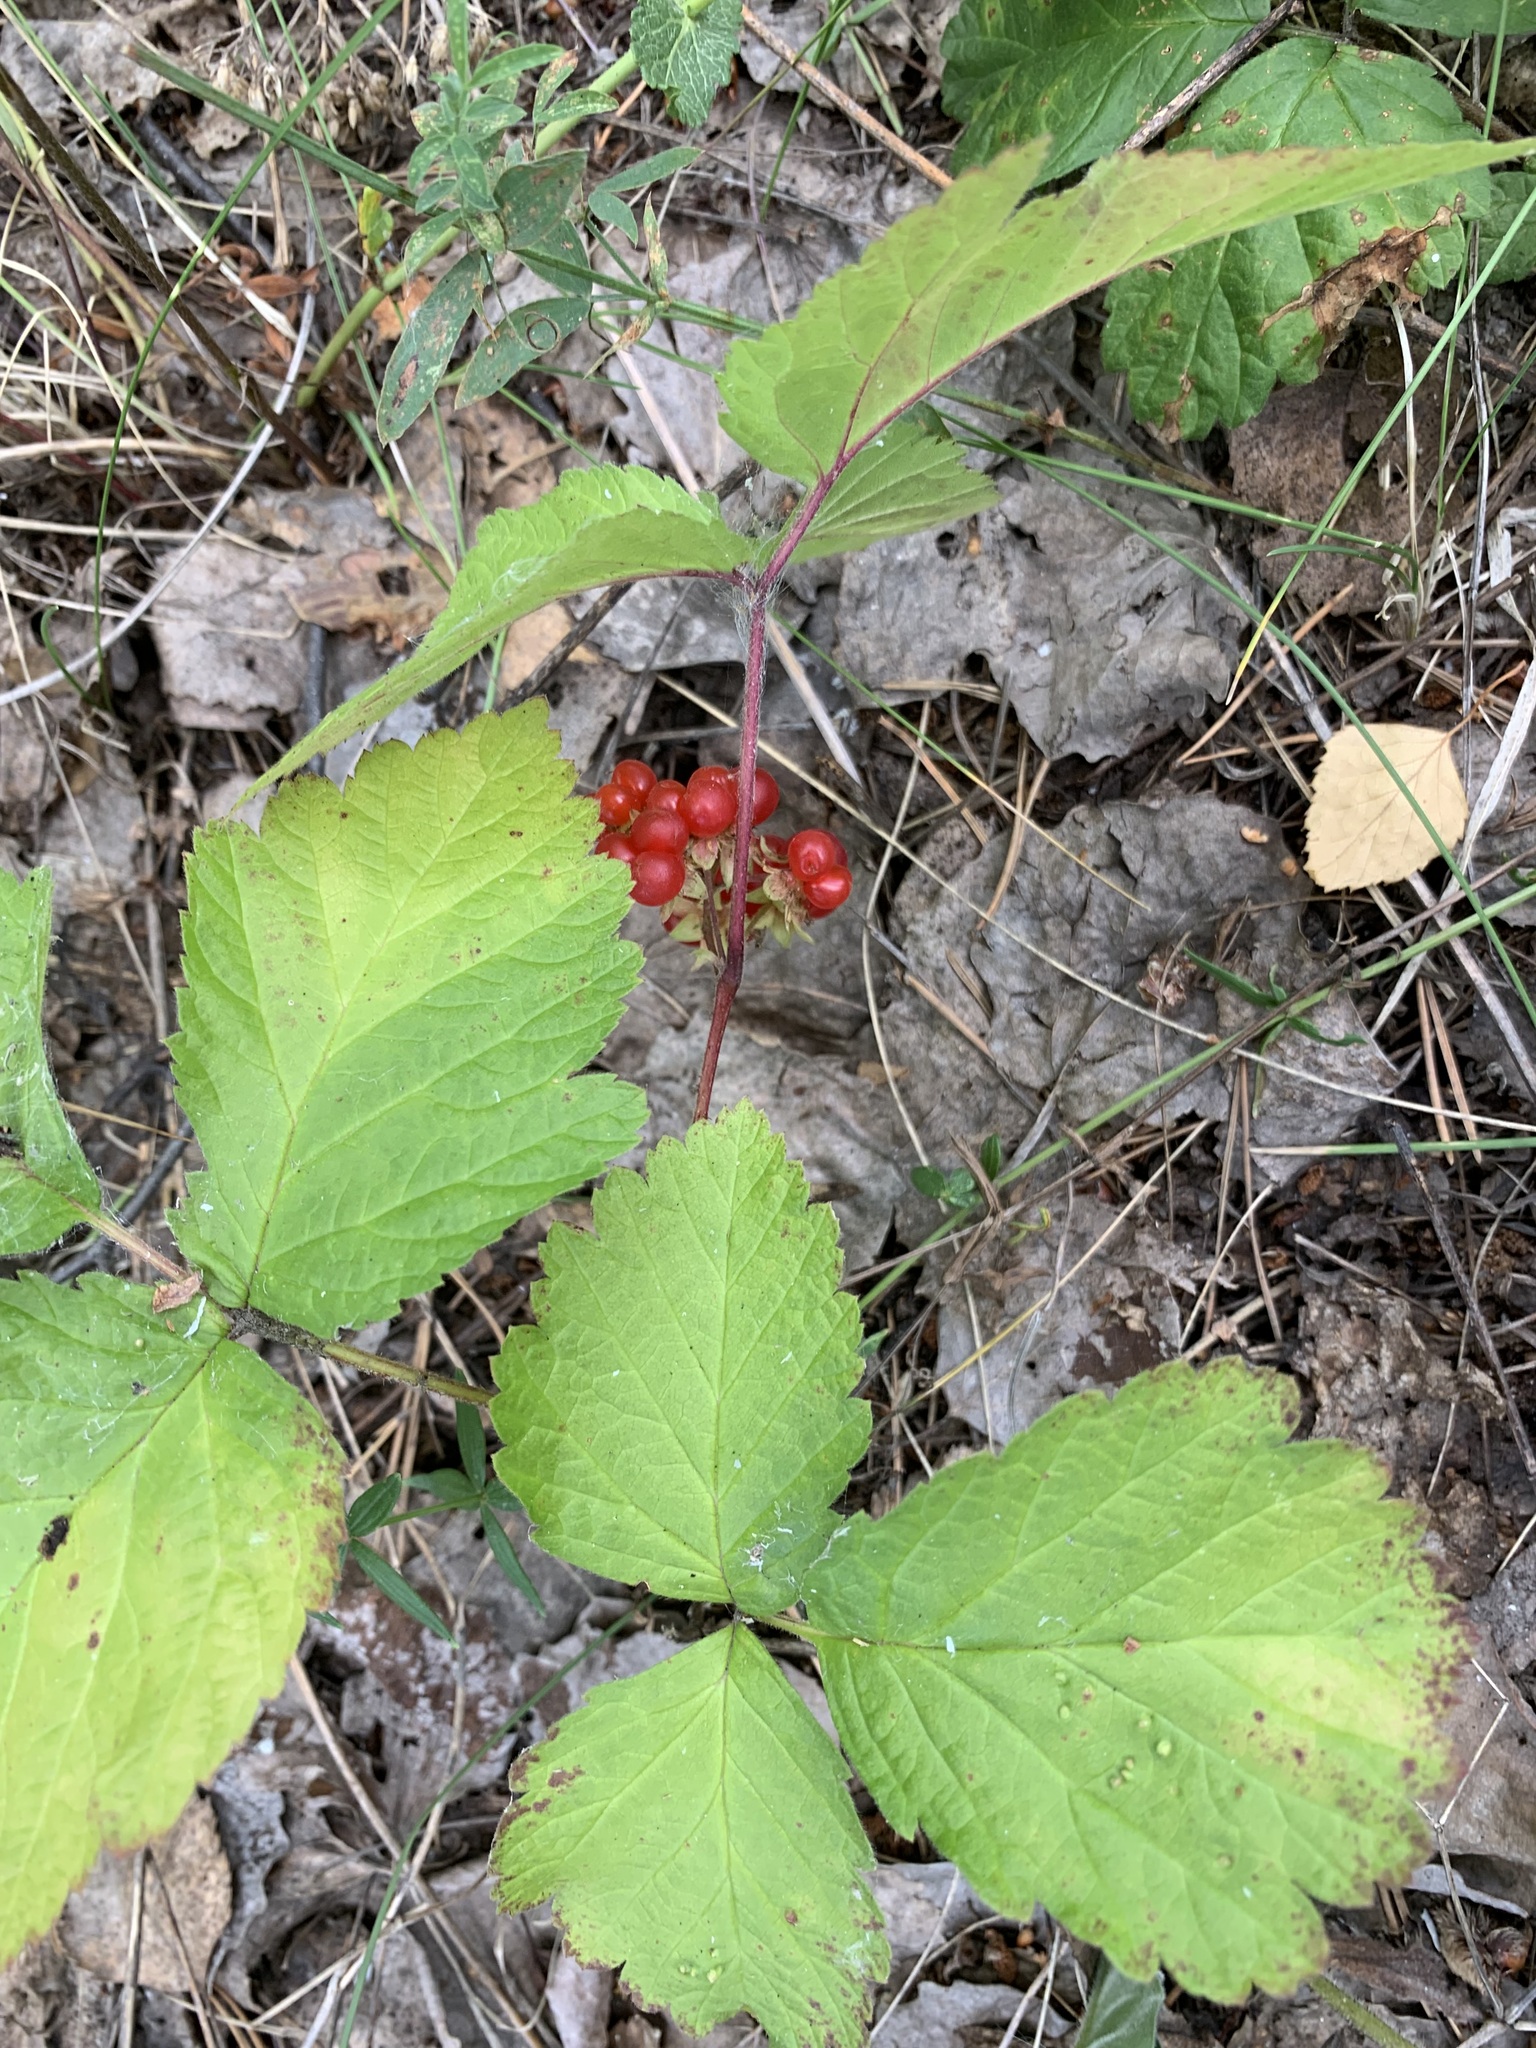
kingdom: Plantae
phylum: Tracheophyta
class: Magnoliopsida
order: Rosales
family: Rosaceae
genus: Rubus
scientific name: Rubus saxatilis
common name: Stone bramble
